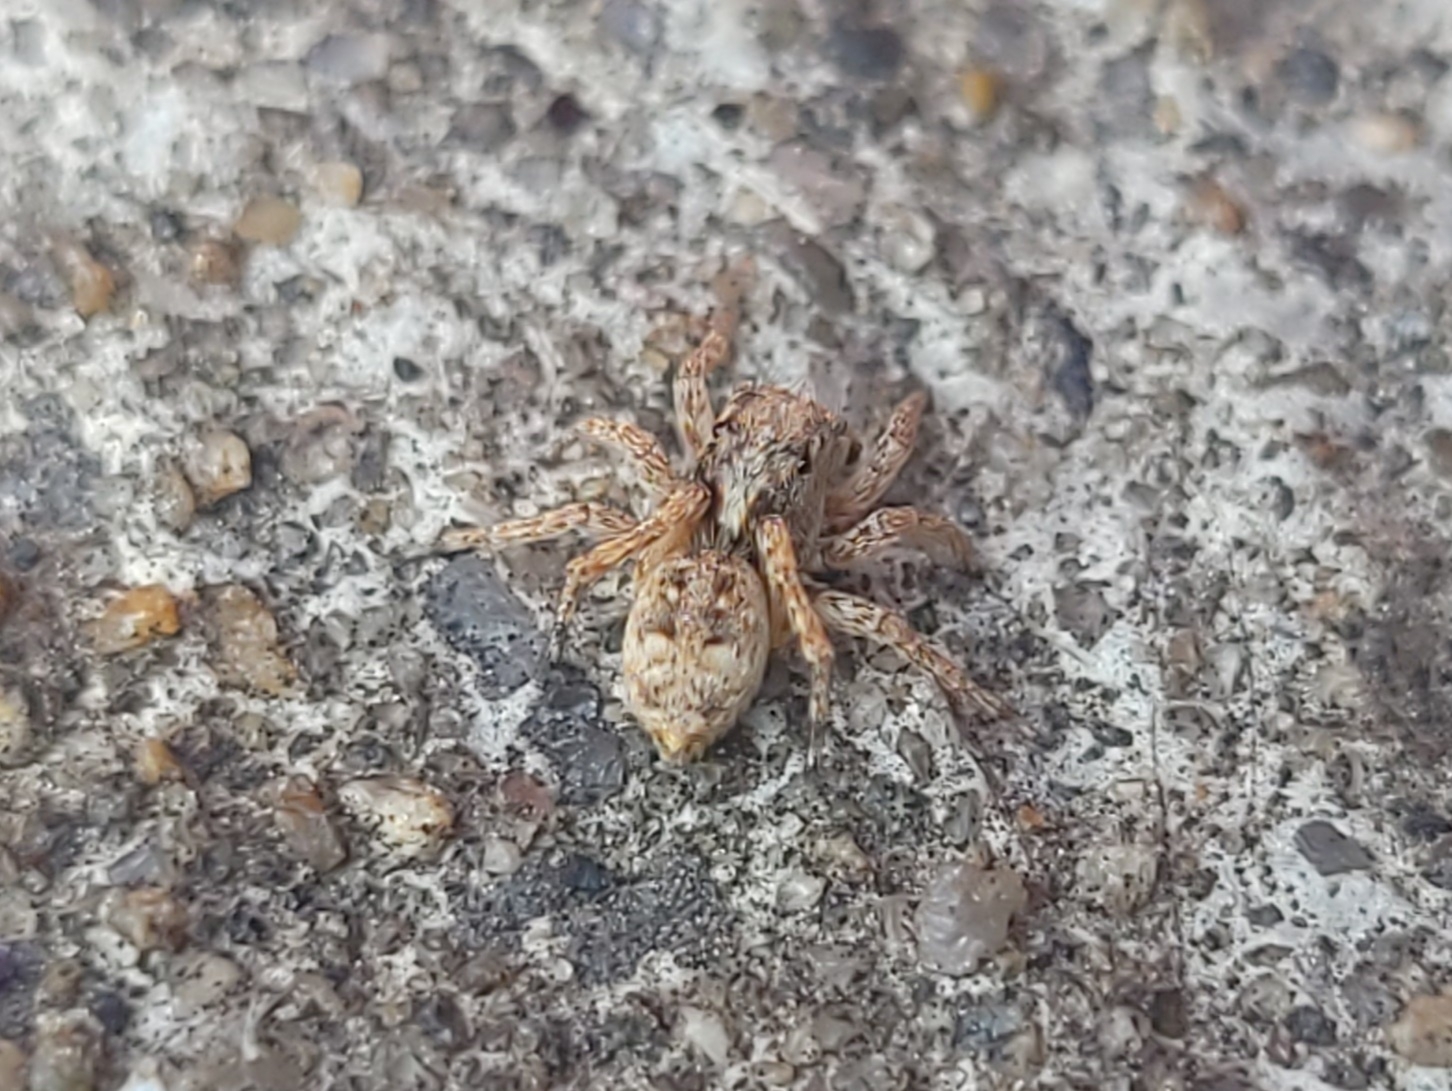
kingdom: Animalia
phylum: Arthropoda
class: Arachnida
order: Araneae
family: Salticidae
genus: Attulus
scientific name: Attulus fasciger
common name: Asiatic wall jumping spider
